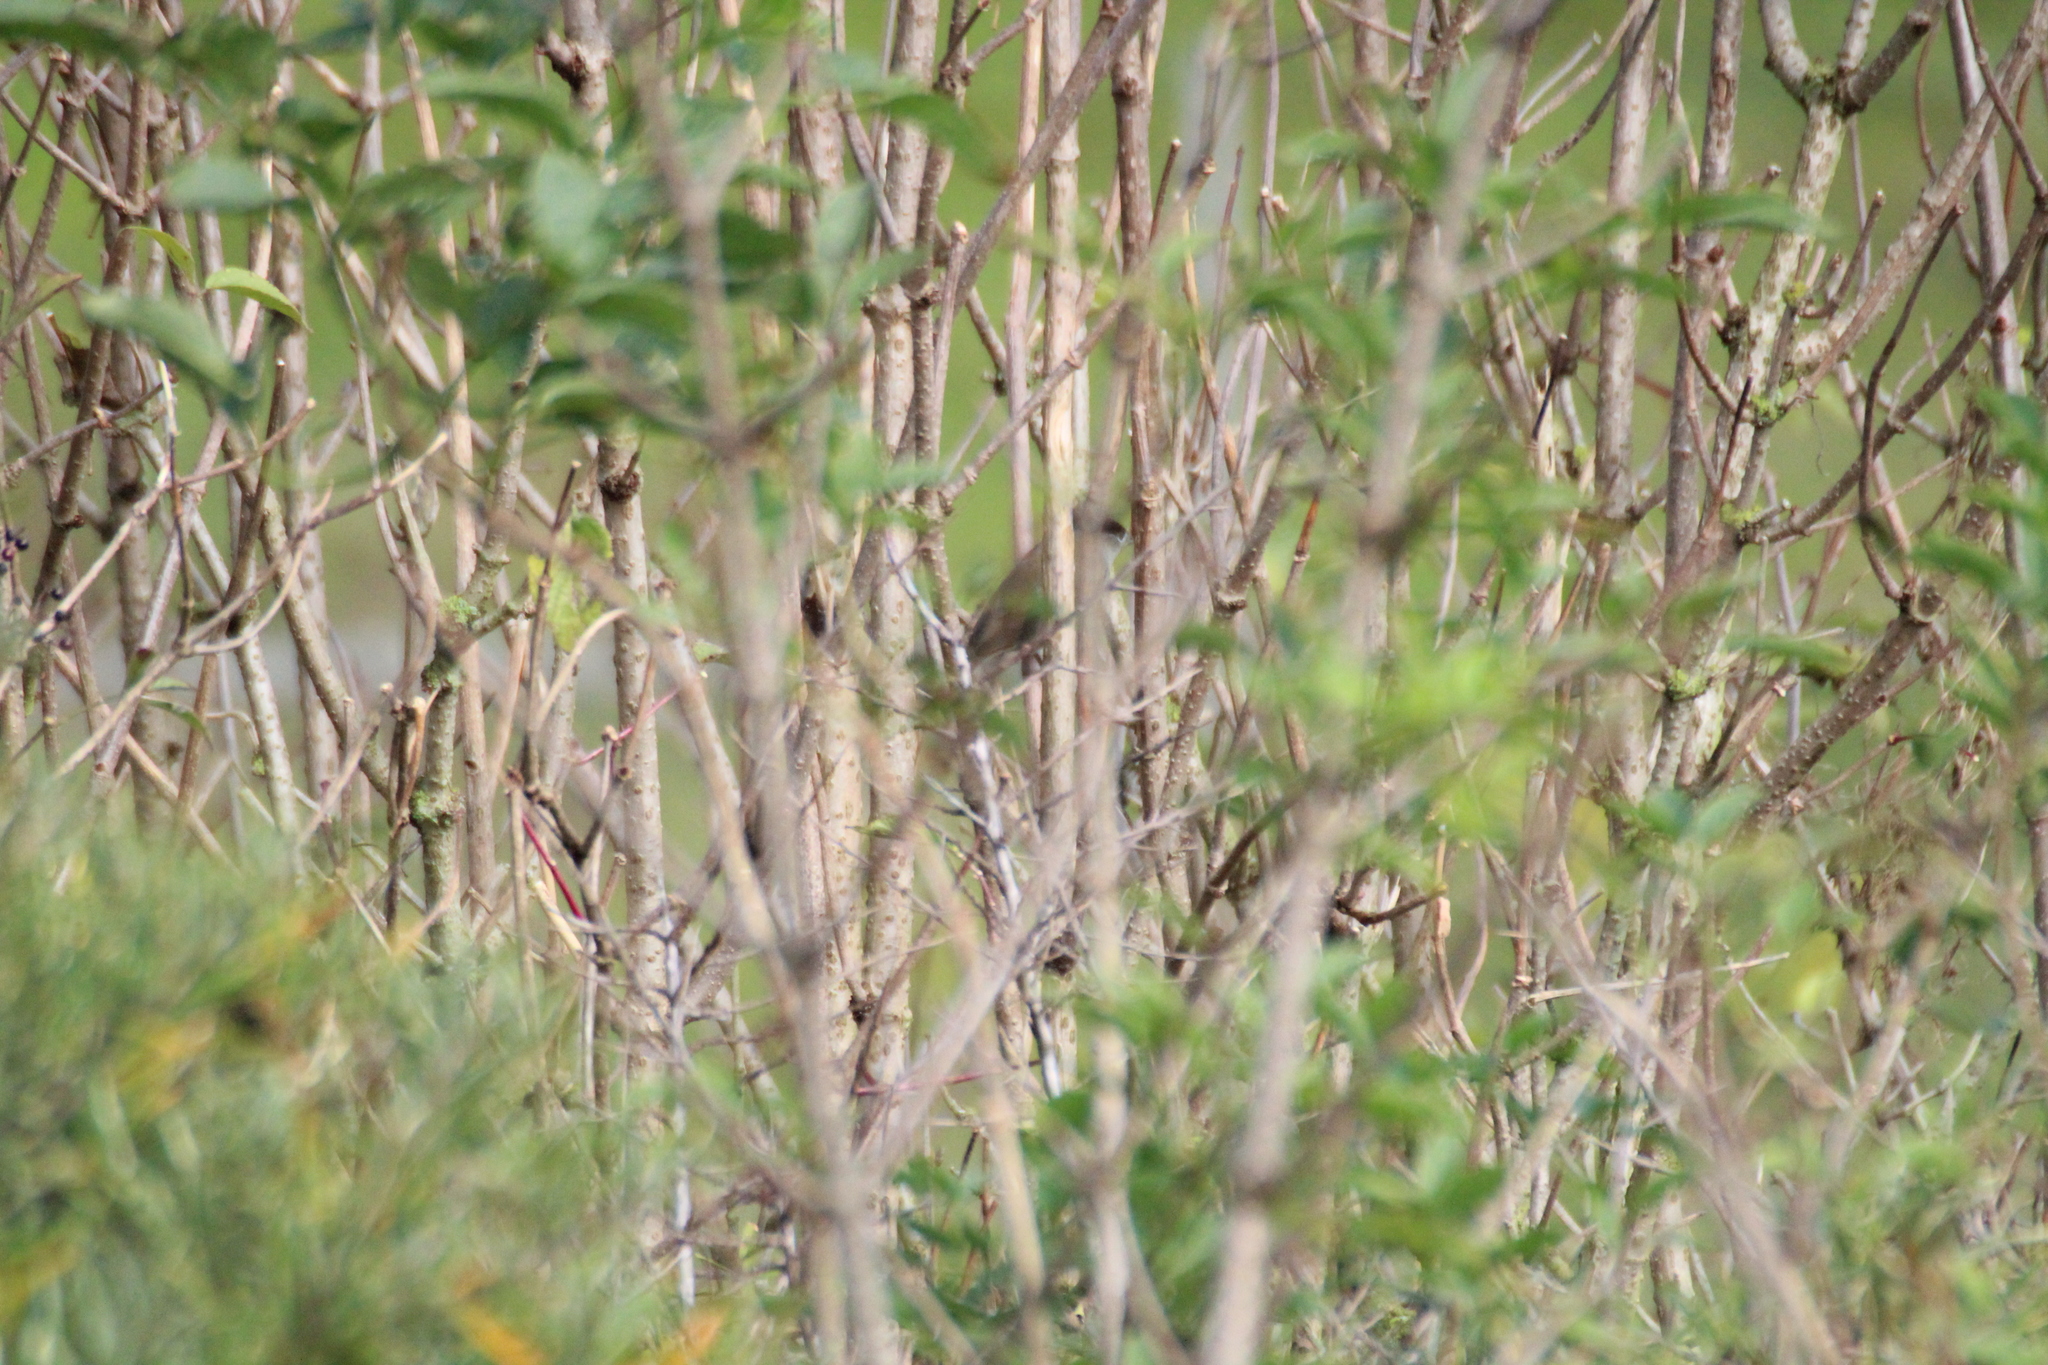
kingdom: Animalia
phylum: Chordata
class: Aves
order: Passeriformes
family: Sylviidae
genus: Sylvia
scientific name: Sylvia atricapilla
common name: Eurasian blackcap
